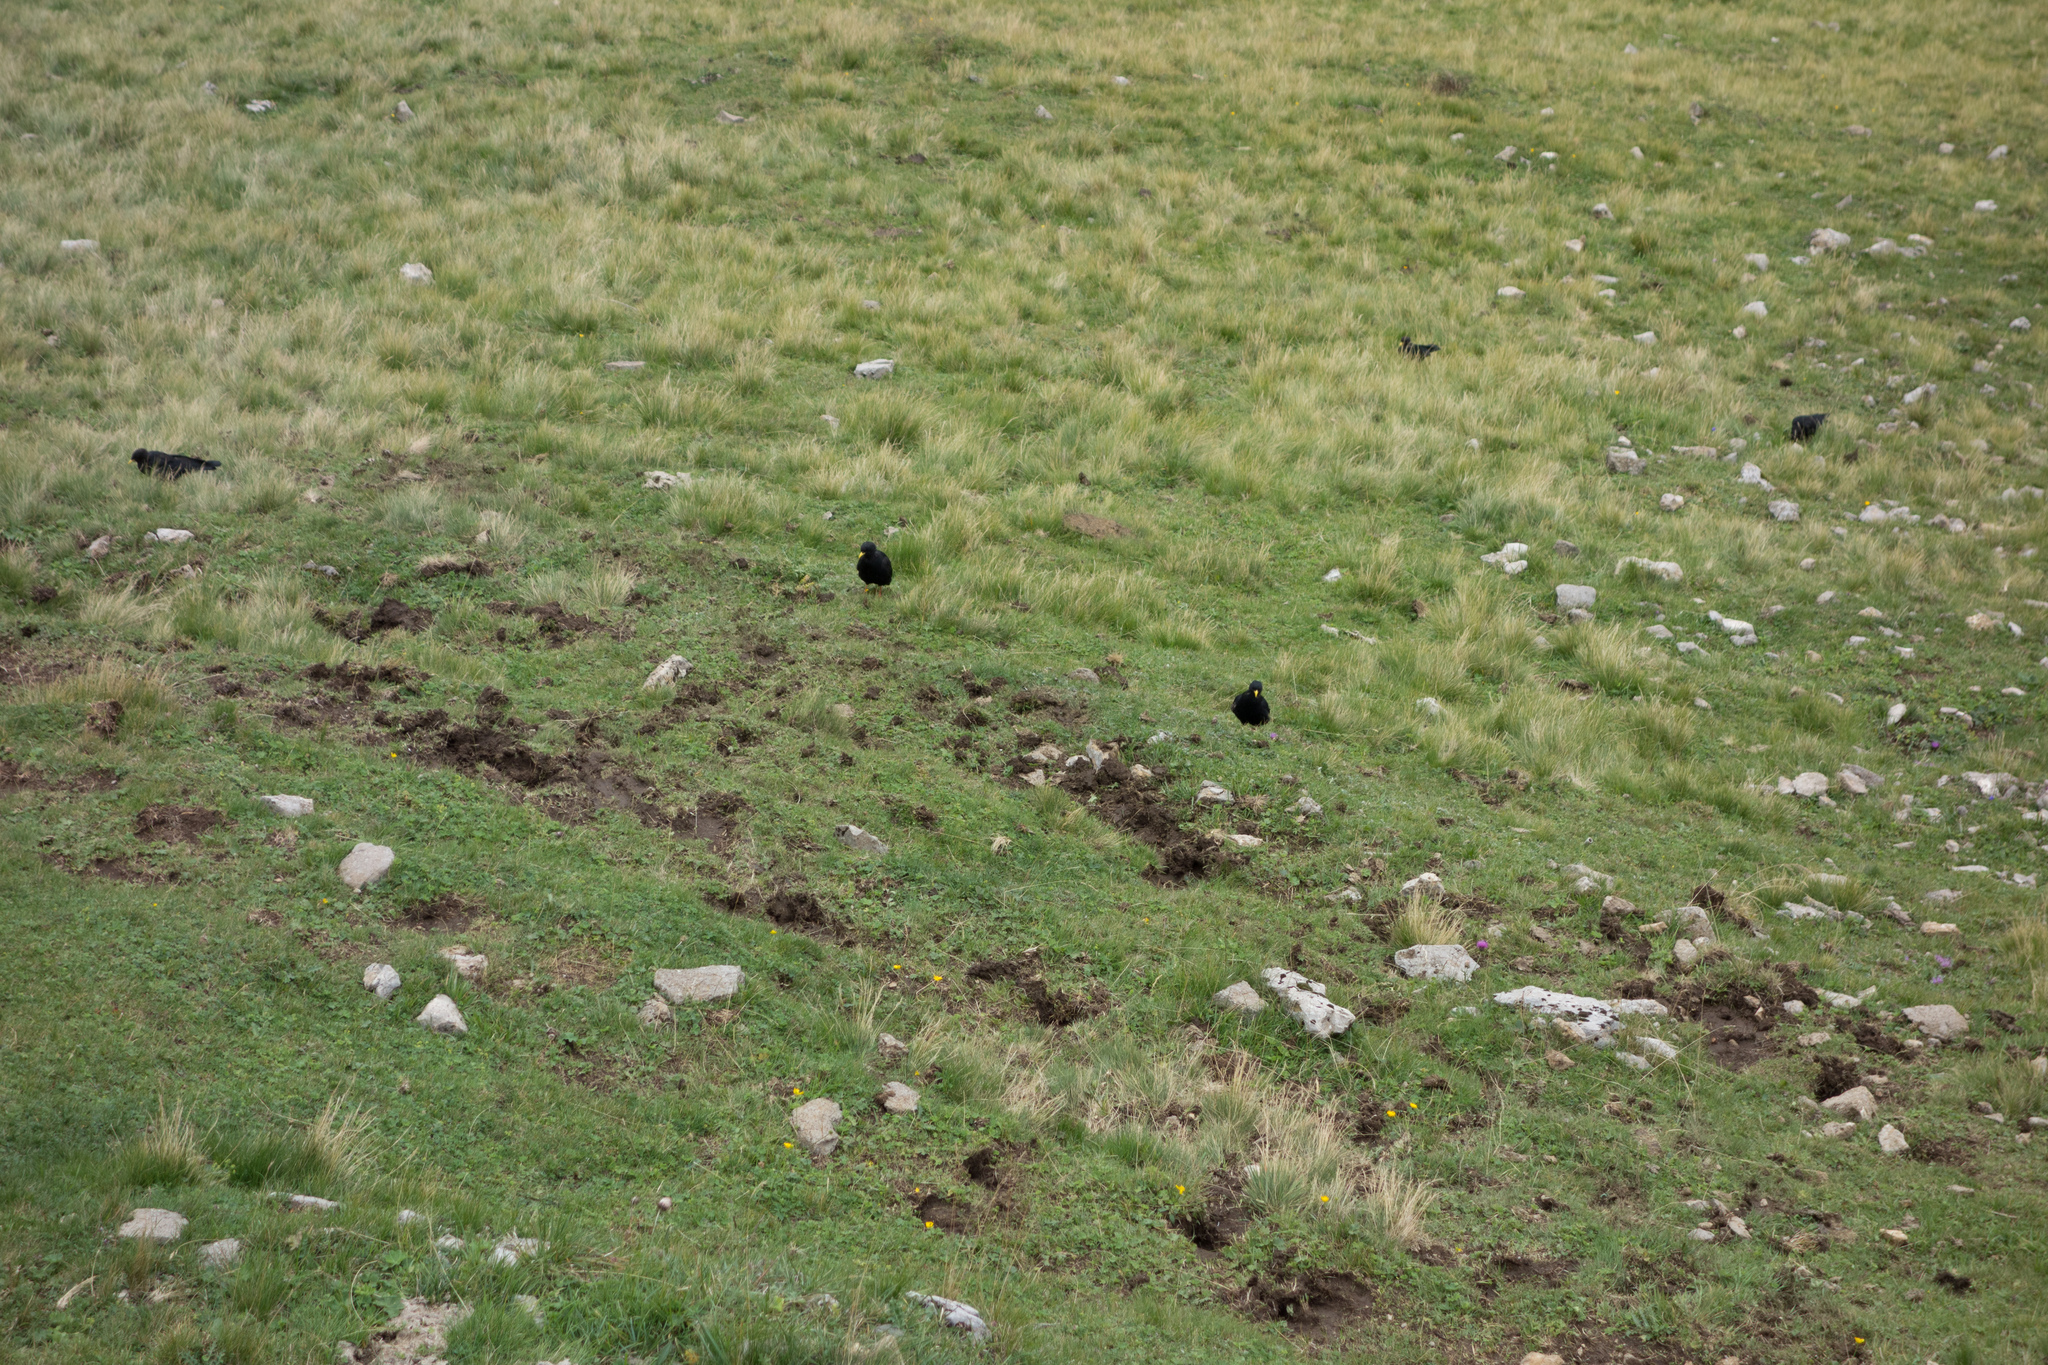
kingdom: Animalia
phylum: Chordata
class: Aves
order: Passeriformes
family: Corvidae
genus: Pyrrhocorax
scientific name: Pyrrhocorax graculus
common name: Alpine chough
